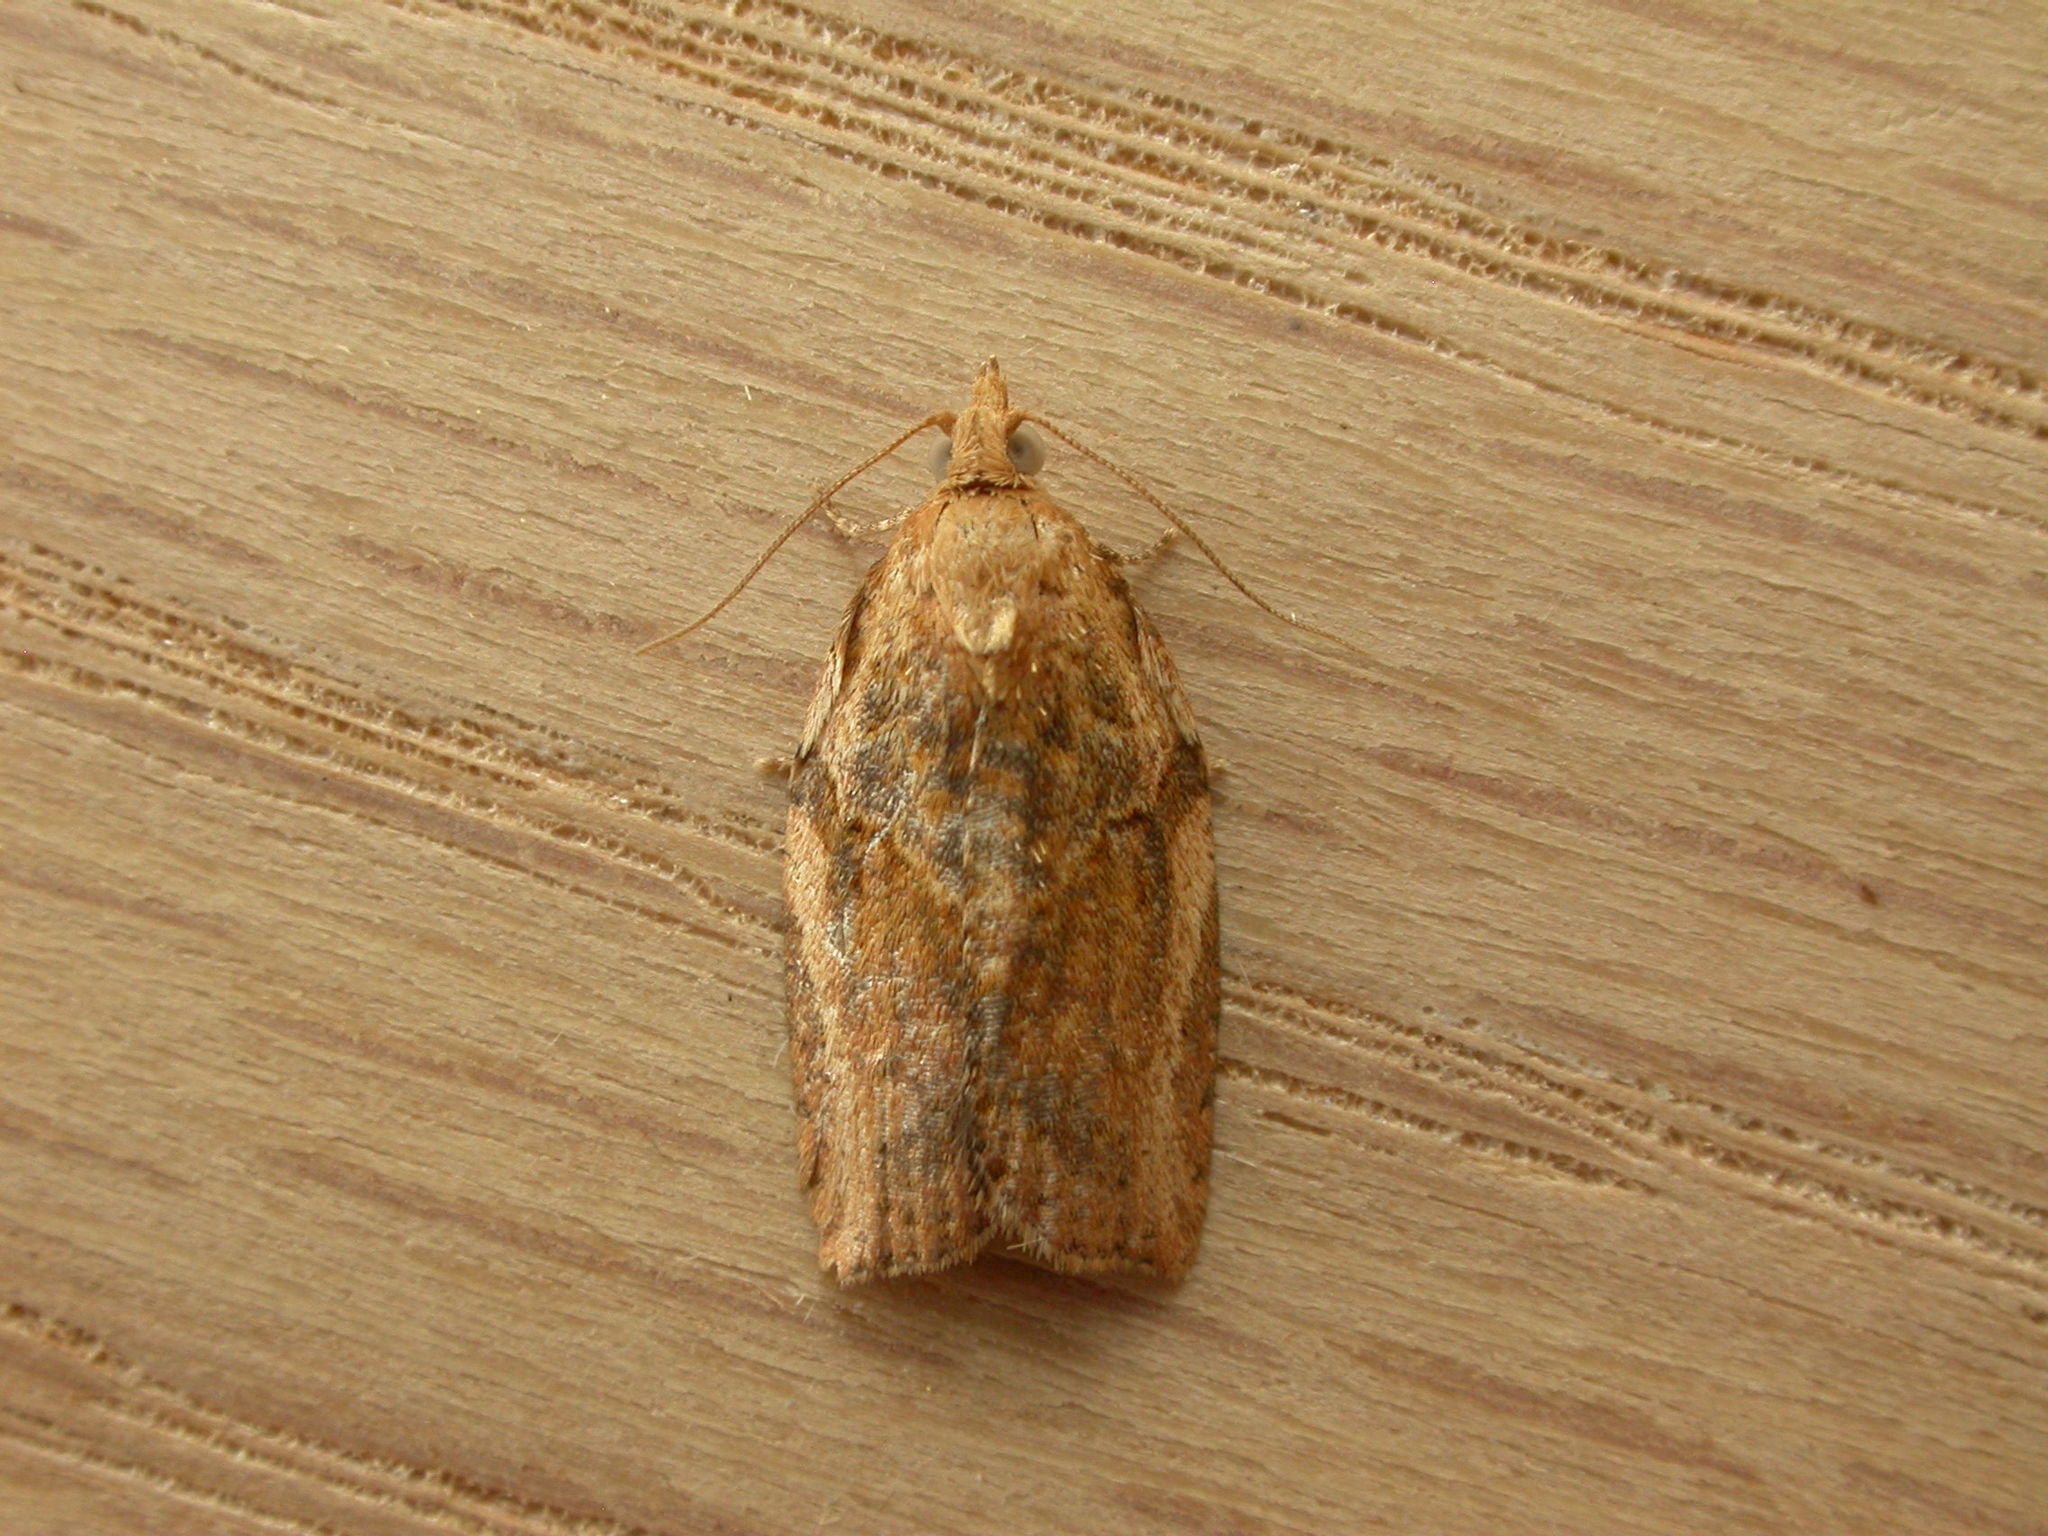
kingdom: Animalia
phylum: Arthropoda
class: Insecta
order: Lepidoptera
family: Tortricidae
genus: Epiphyas
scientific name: Epiphyas postvittana
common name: Light brown apple moth
